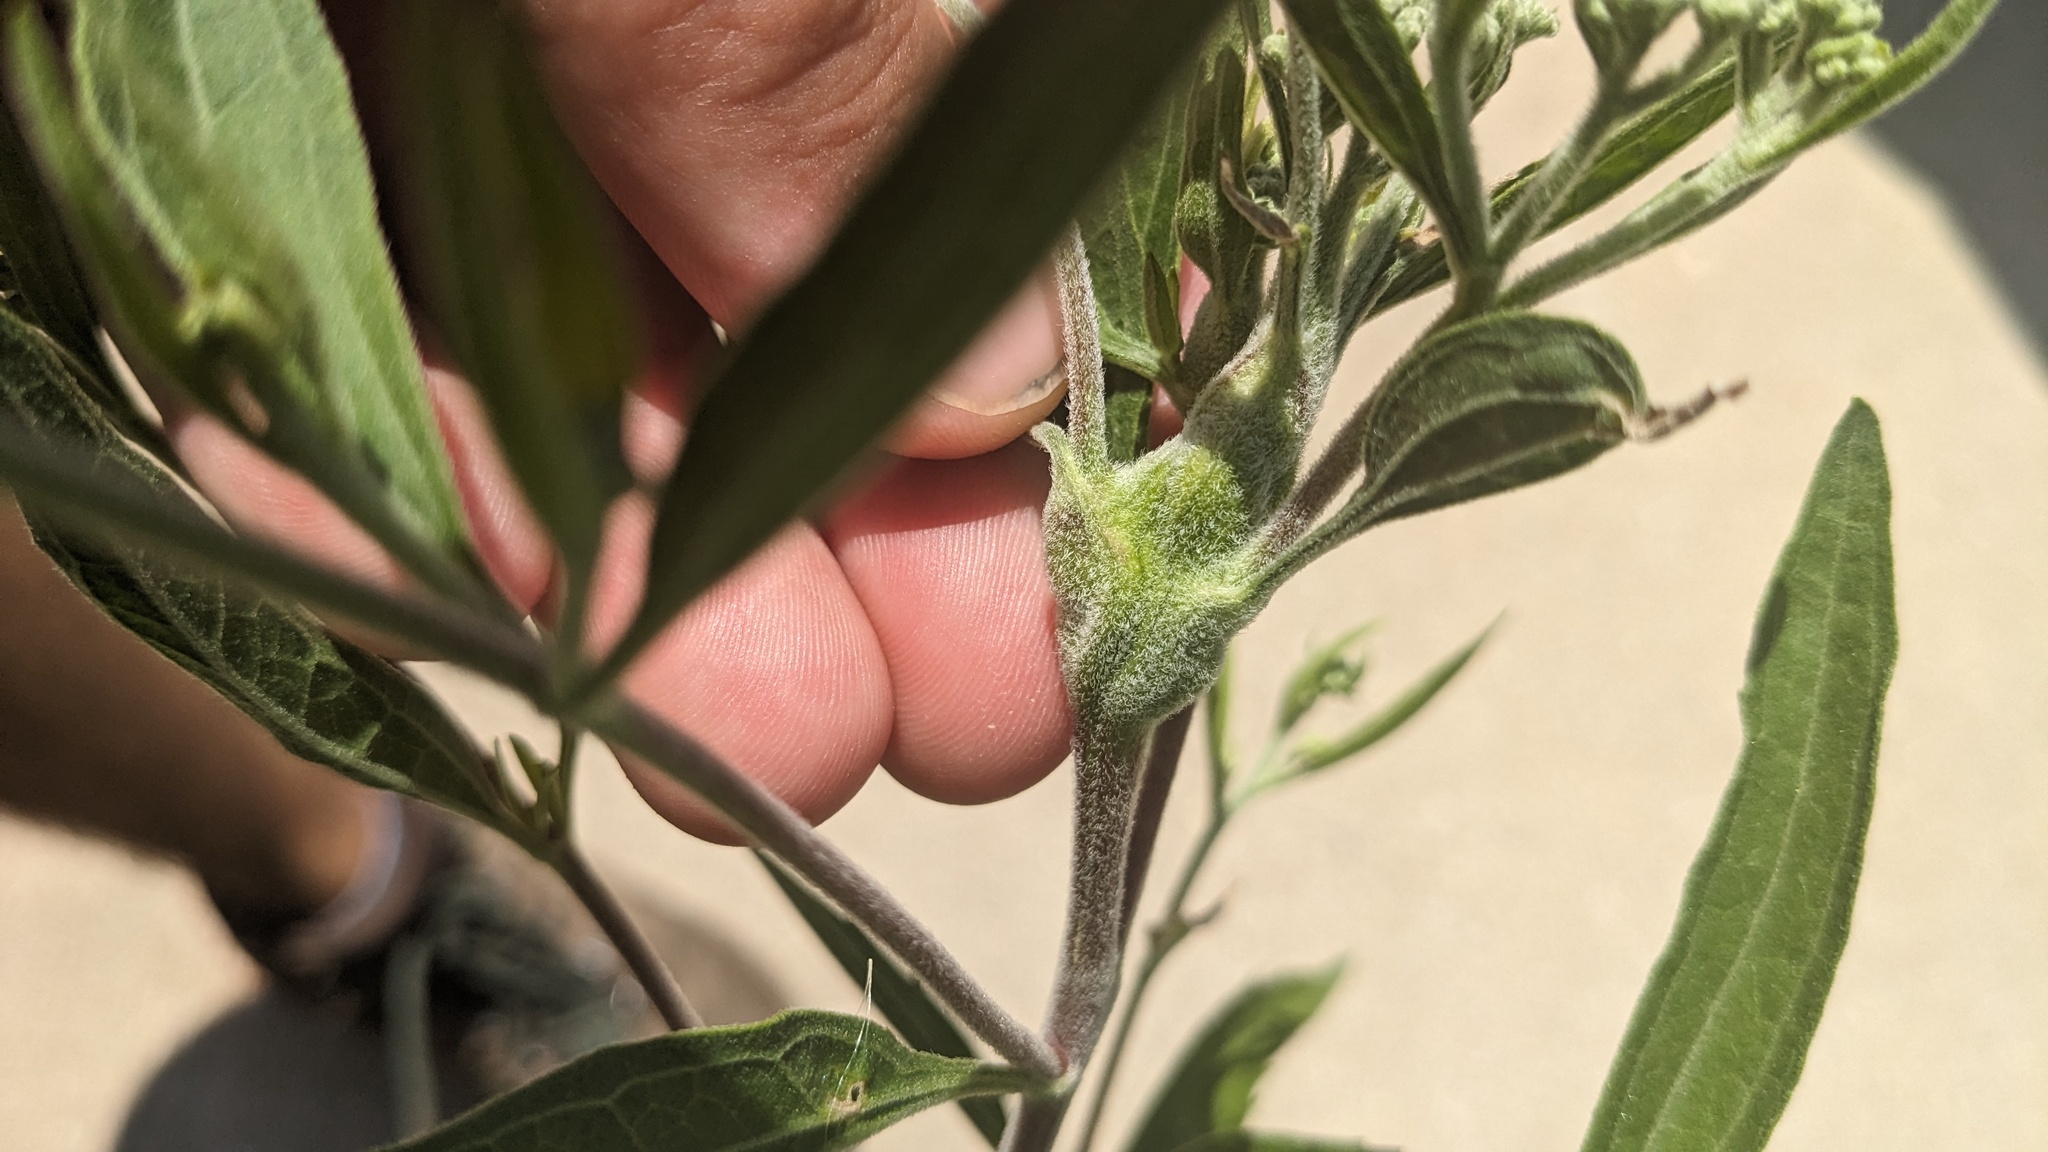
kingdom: Animalia
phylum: Arthropoda
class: Insecta
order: Diptera
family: Cecidomyiidae
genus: Neolasioptera
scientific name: Neolasioptera perfoliata
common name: Boneset stem midge
